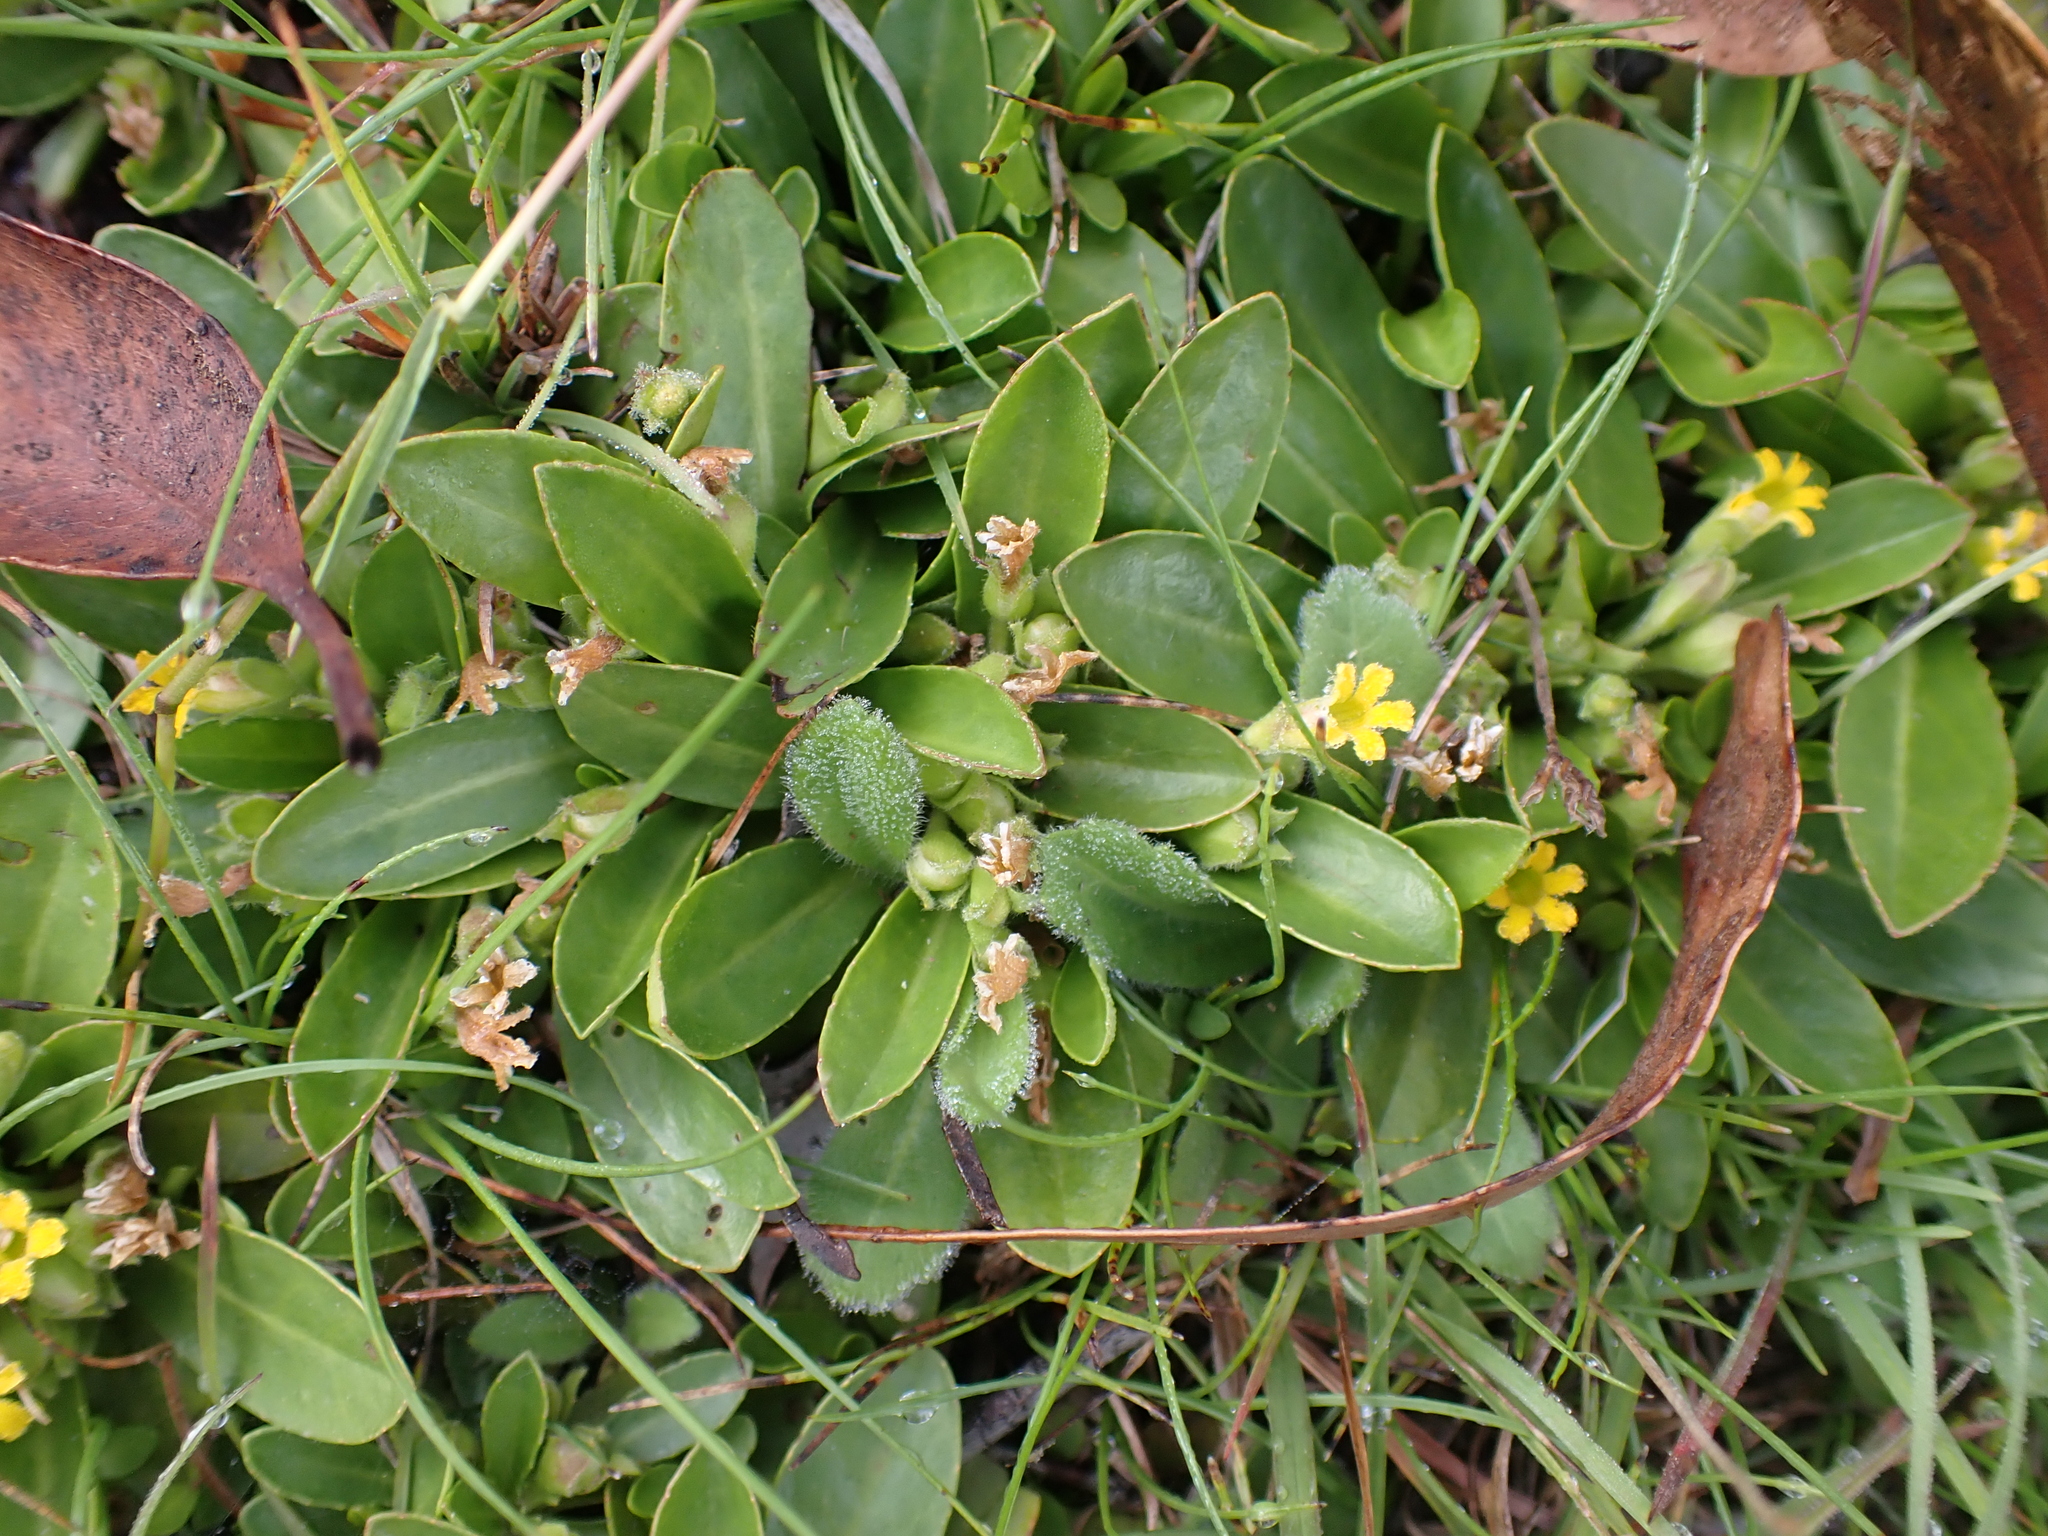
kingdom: Plantae
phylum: Tracheophyta
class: Magnoliopsida
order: Asterales
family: Goodeniaceae
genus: Goodenia
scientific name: Goodenia montana
